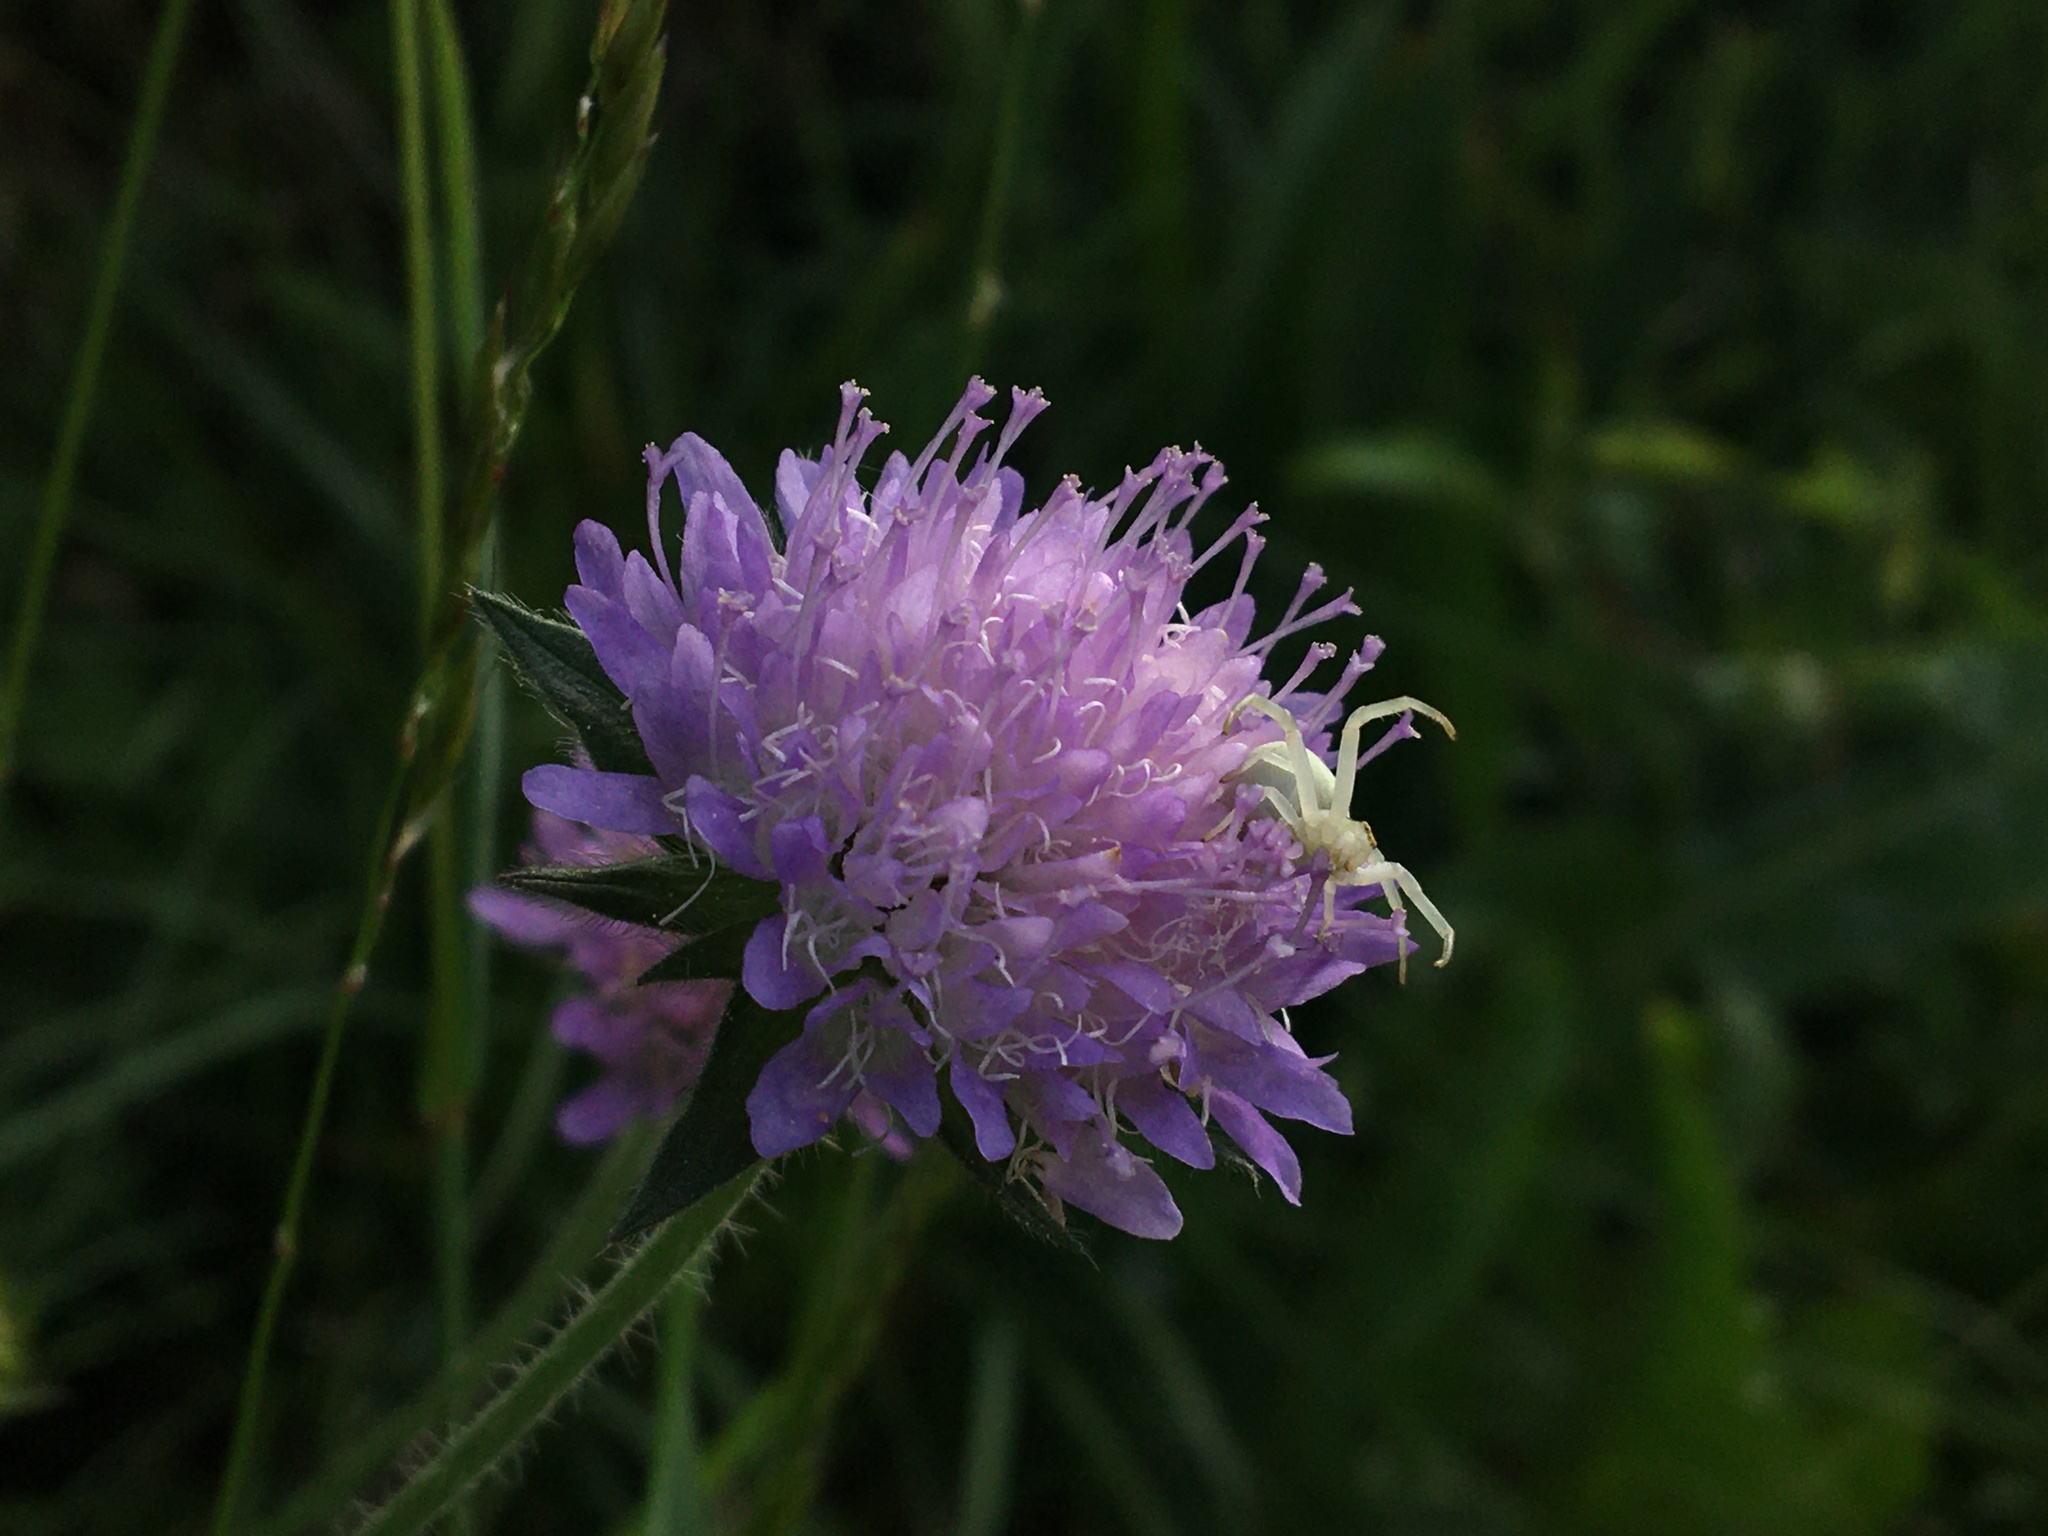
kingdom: Animalia
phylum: Arthropoda
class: Arachnida
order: Araneae
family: Thomisidae
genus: Misumena
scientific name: Misumena vatia
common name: Goldenrod crab spider
